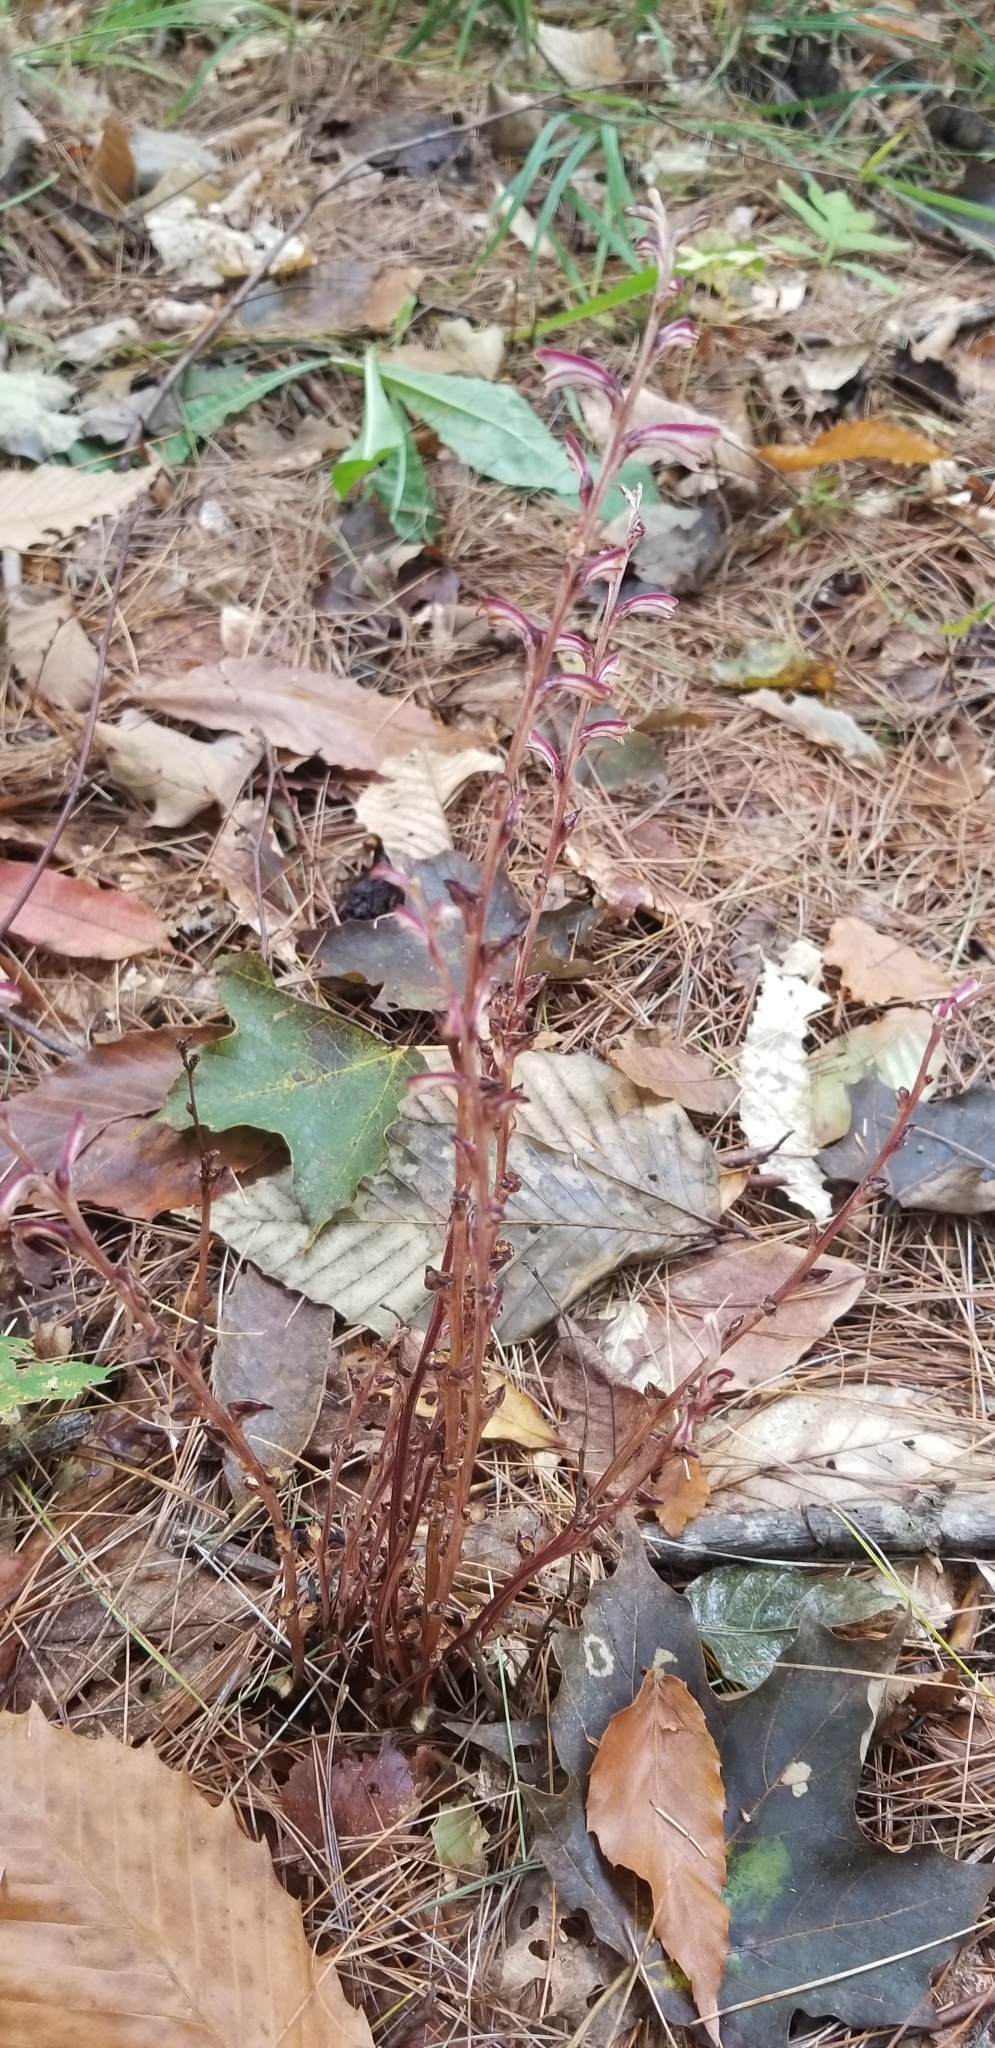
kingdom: Plantae
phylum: Tracheophyta
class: Magnoliopsida
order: Lamiales
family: Orobanchaceae
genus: Epifagus
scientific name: Epifagus virginiana
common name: Beechdrops
